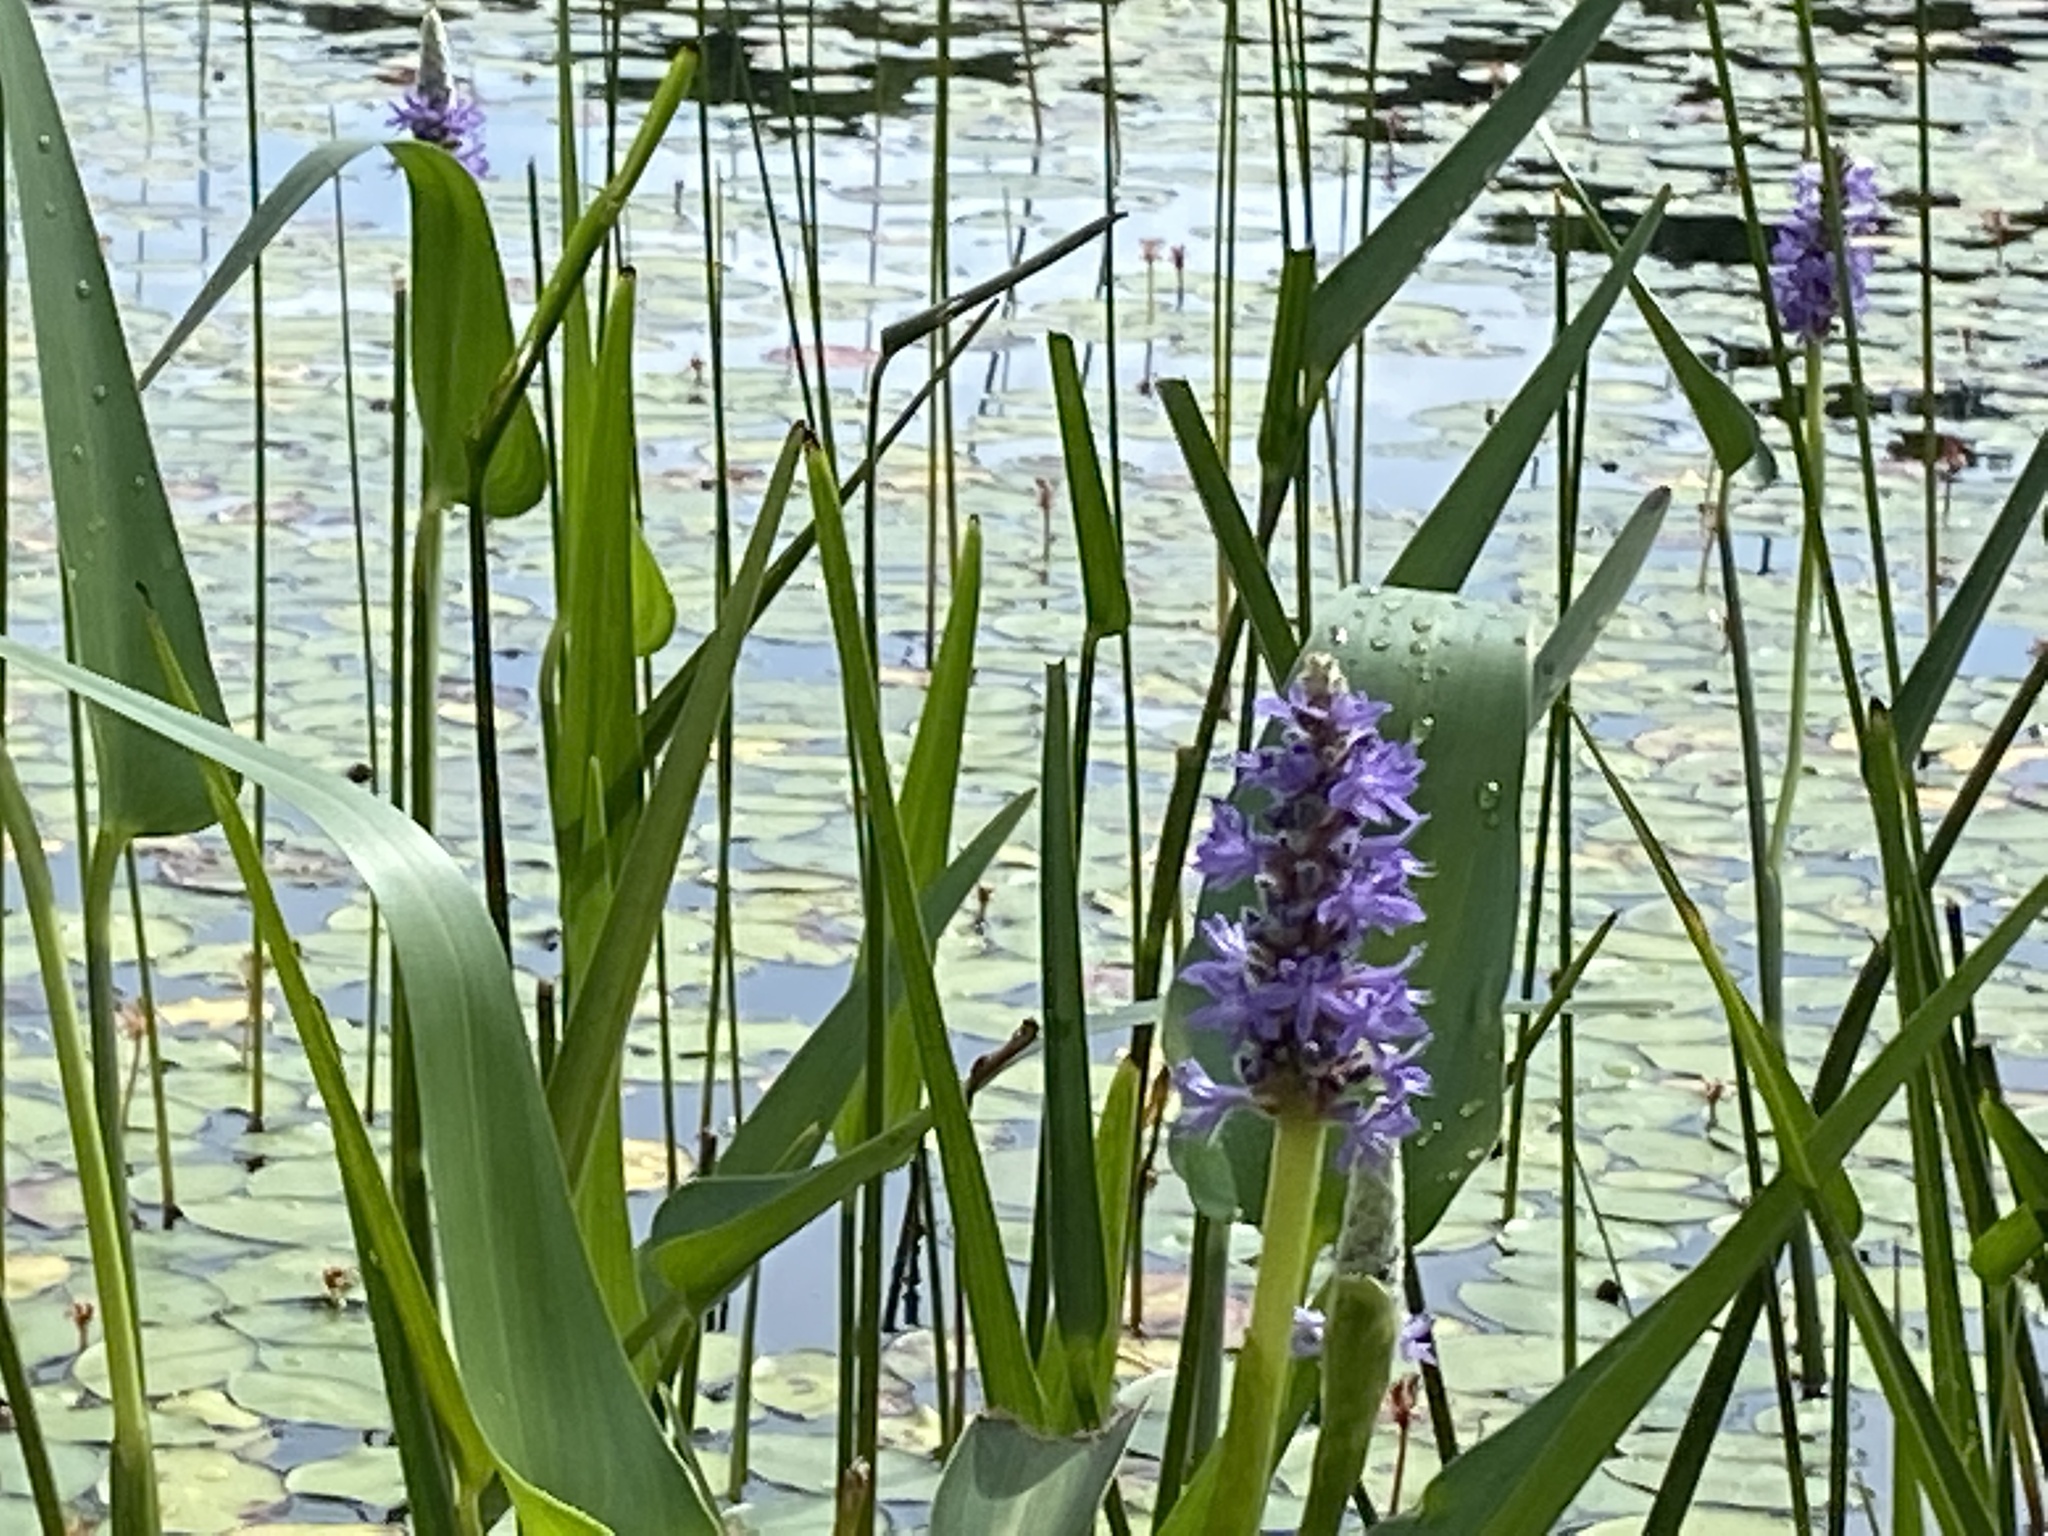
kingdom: Plantae
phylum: Tracheophyta
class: Liliopsida
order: Commelinales
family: Pontederiaceae
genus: Pontederia
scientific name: Pontederia cordata
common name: Pickerelweed
